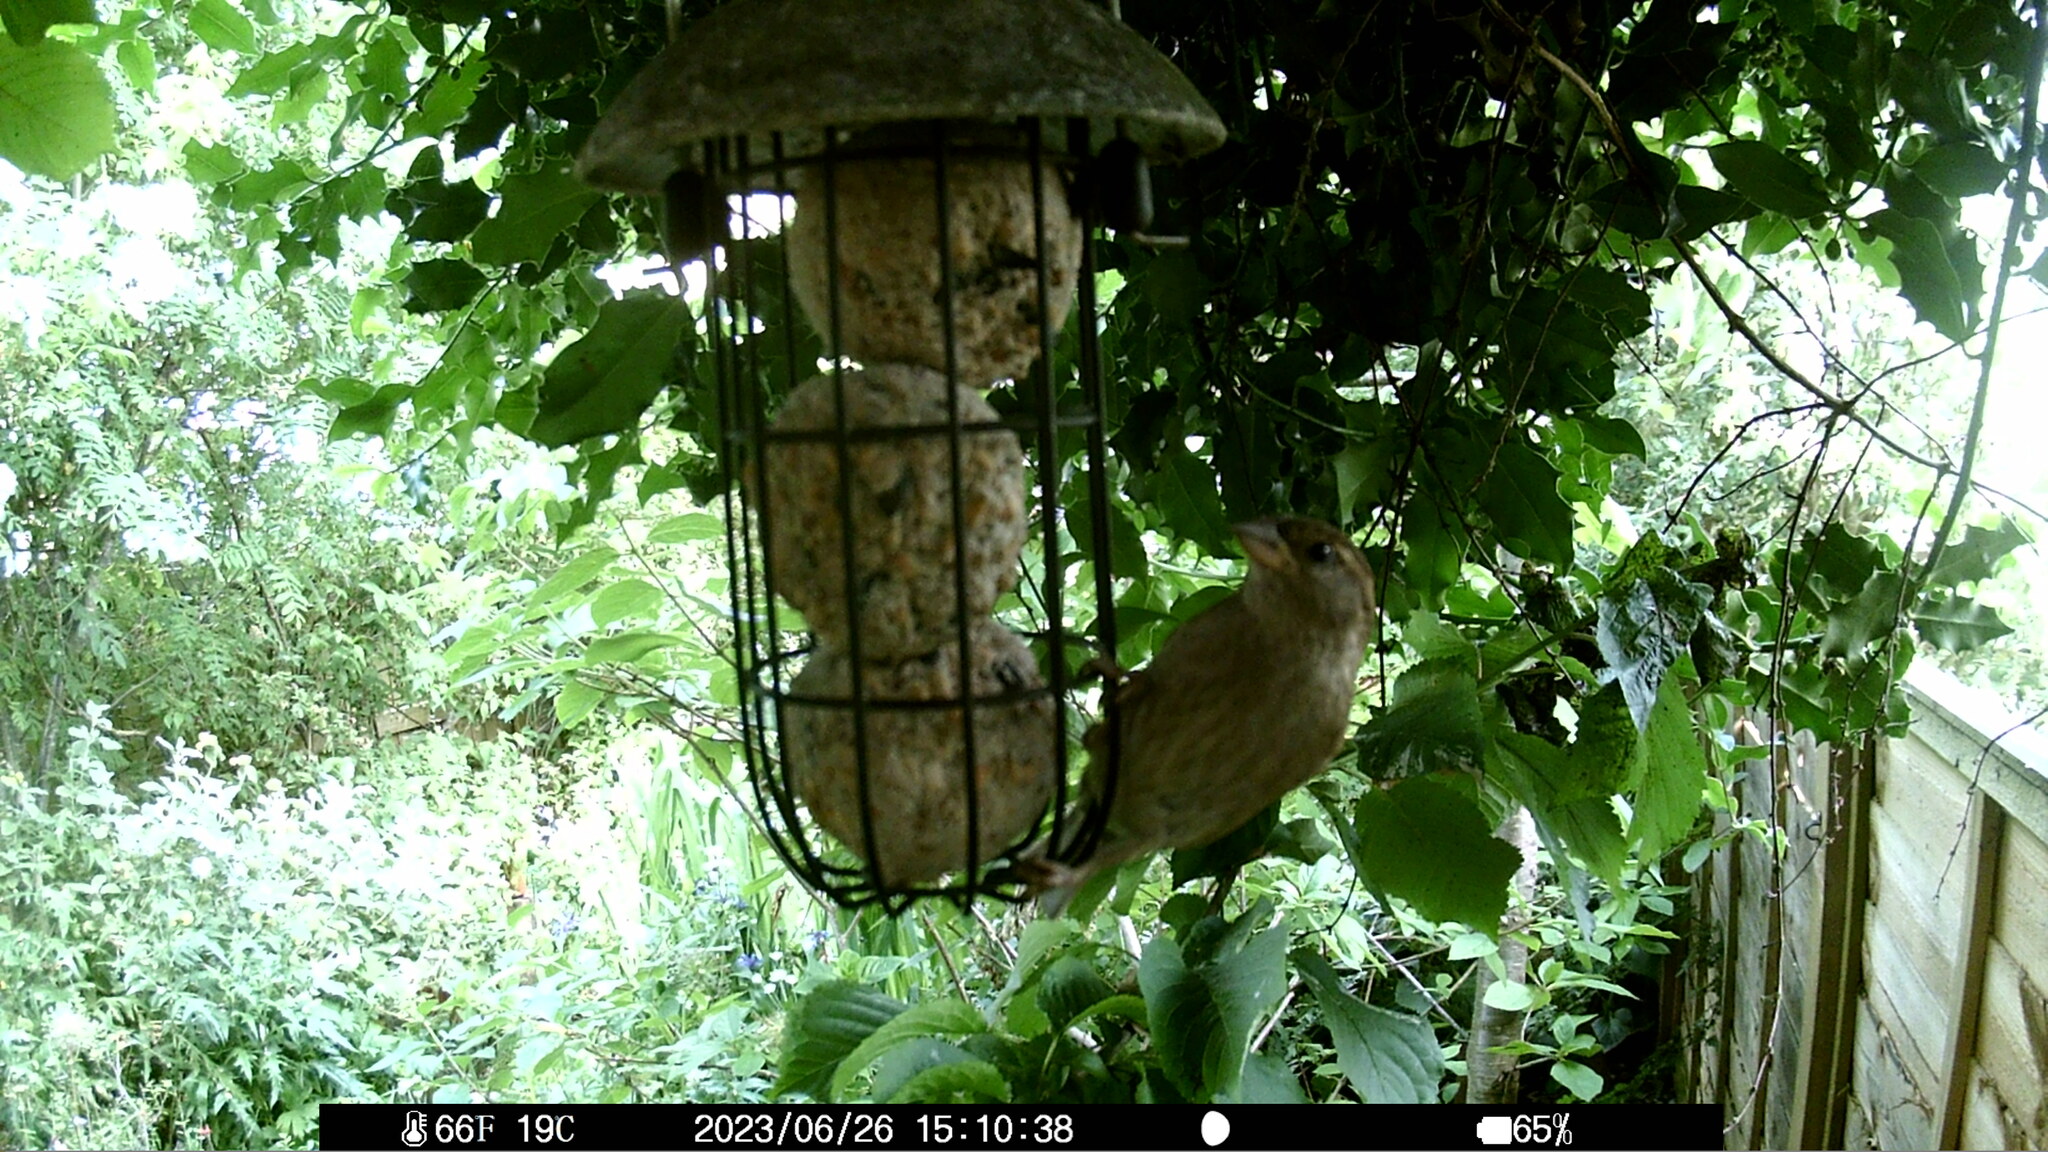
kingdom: Plantae
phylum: Tracheophyta
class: Liliopsida
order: Poales
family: Poaceae
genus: Chloris
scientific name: Chloris chloris
